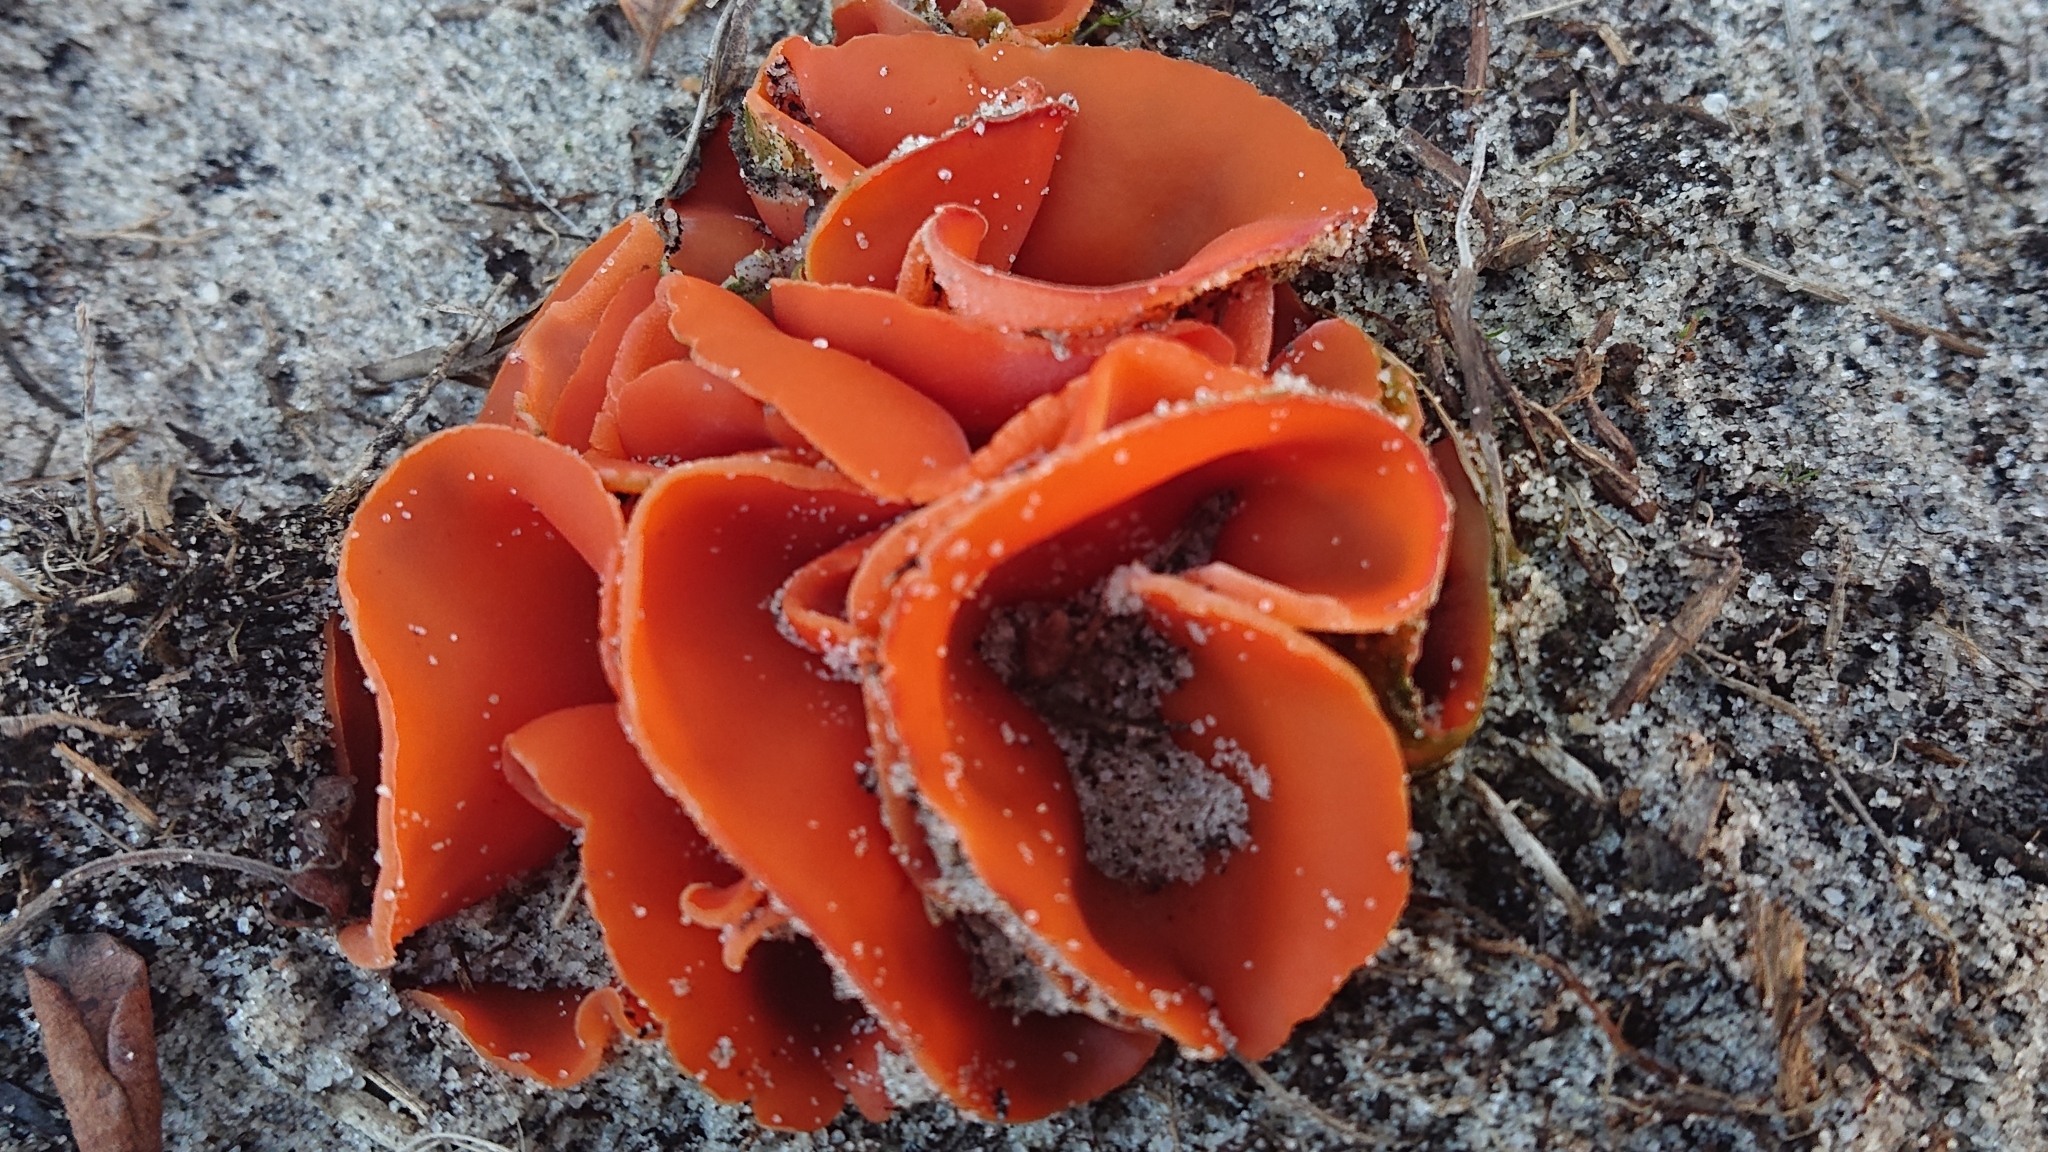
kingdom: Fungi
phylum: Ascomycota
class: Pezizomycetes
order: Pezizales
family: Pyronemataceae
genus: Aleuria
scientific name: Aleuria aurantia
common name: Orange peel fungus
